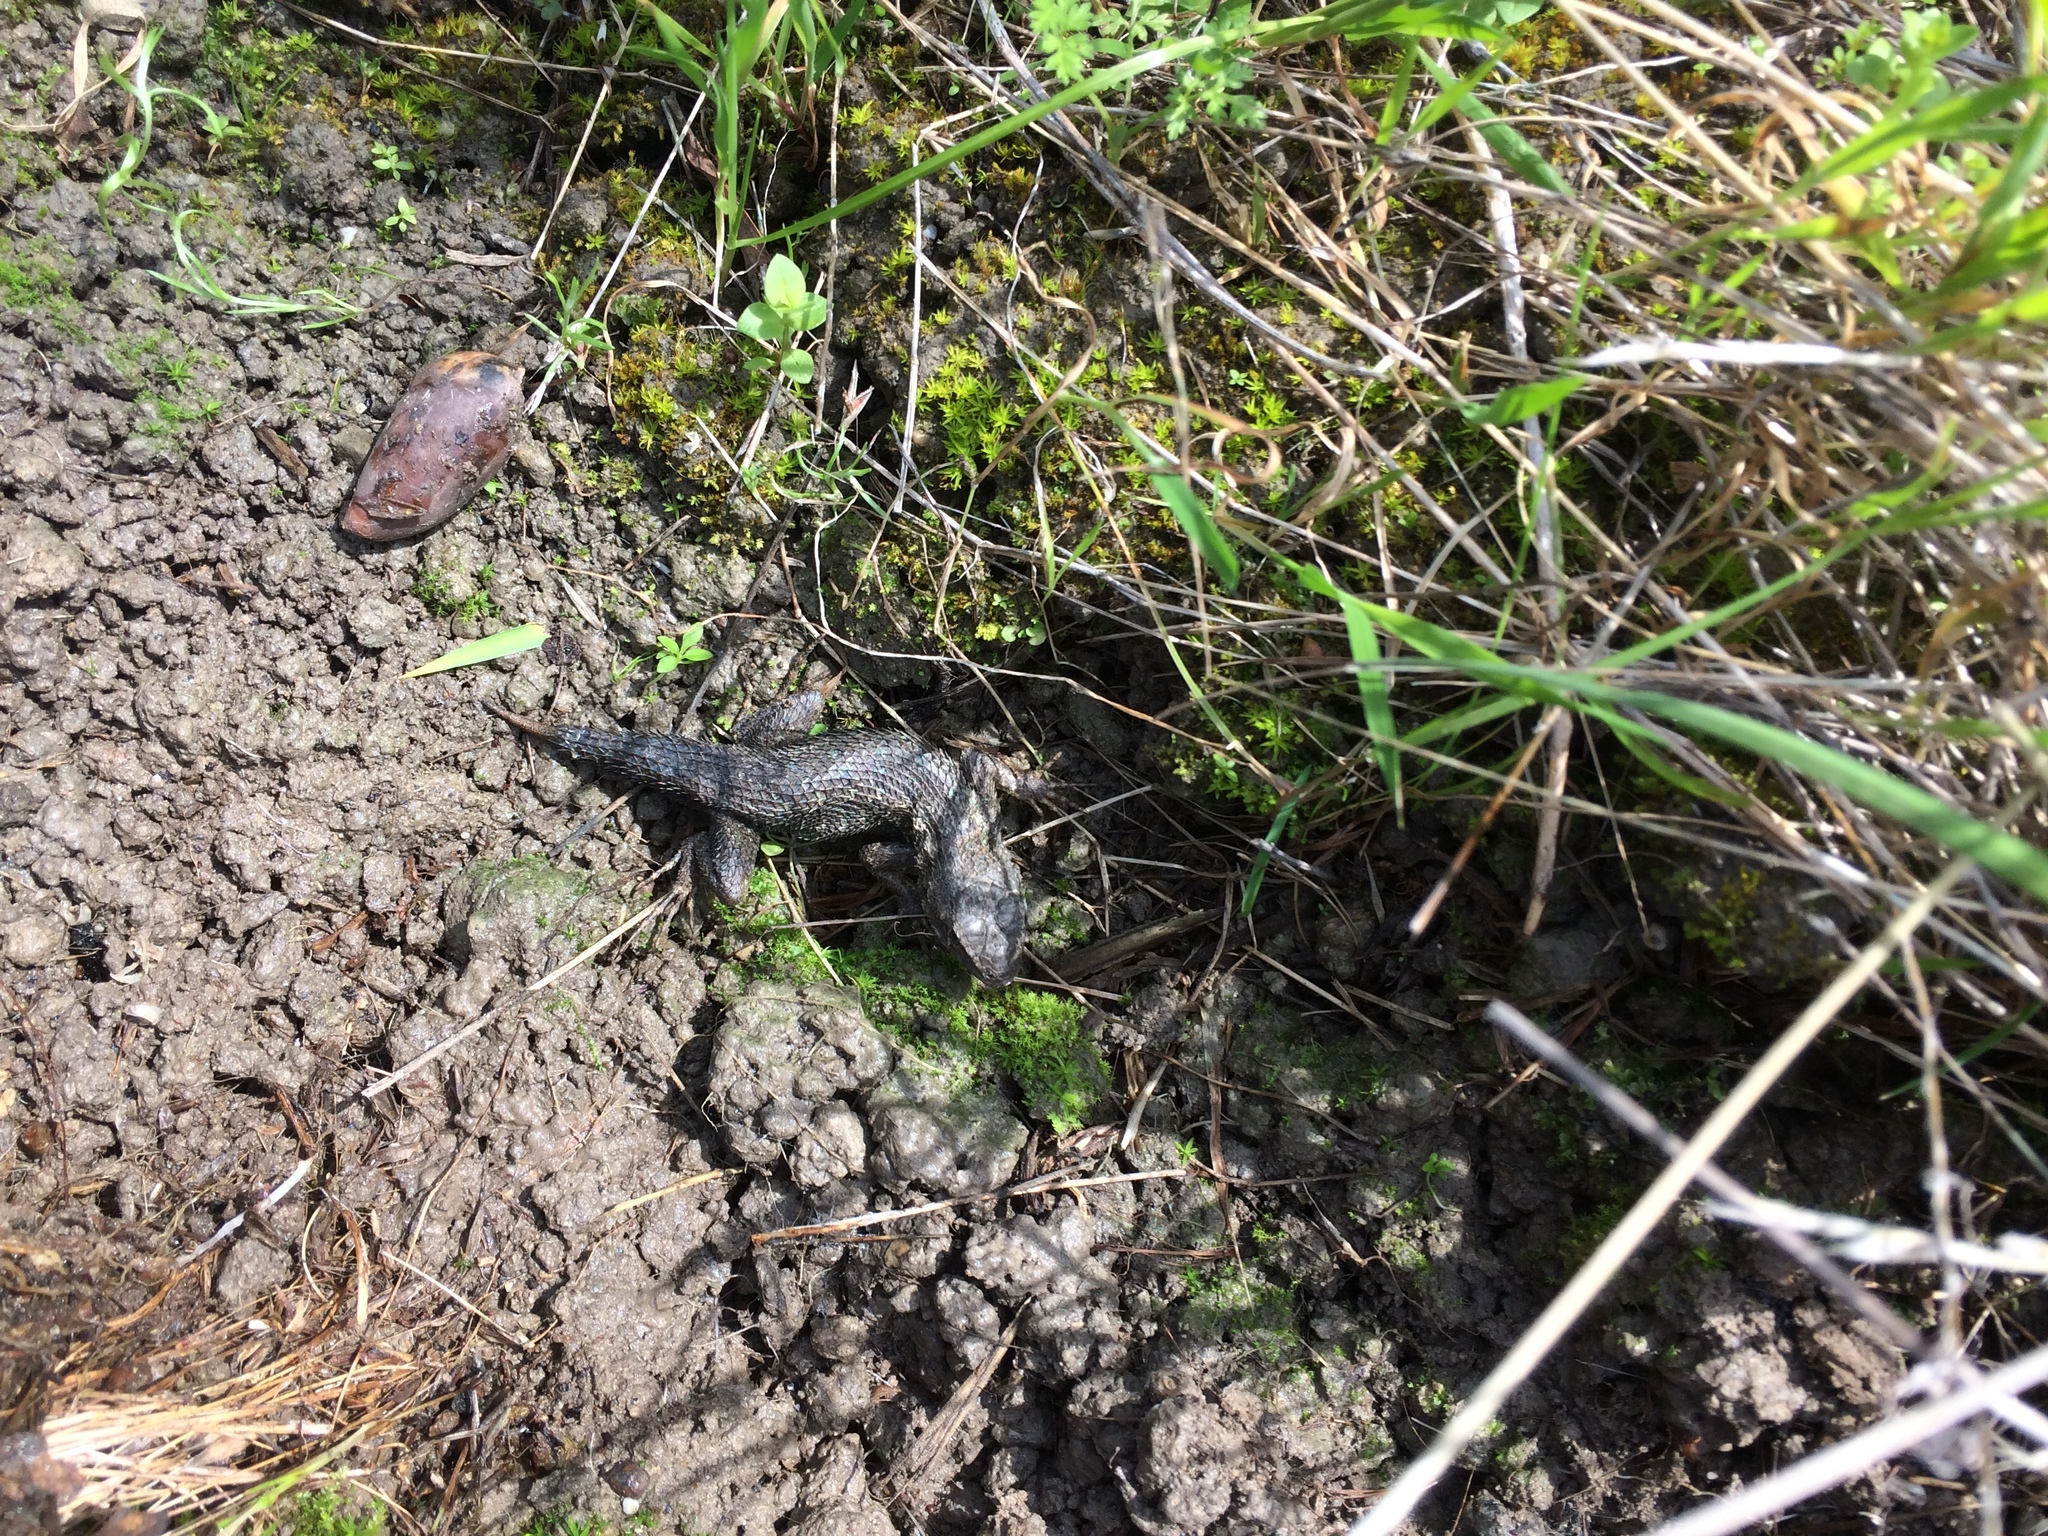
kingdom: Animalia
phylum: Chordata
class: Squamata
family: Phrynosomatidae
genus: Sceloporus
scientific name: Sceloporus occidentalis
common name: Western fence lizard
